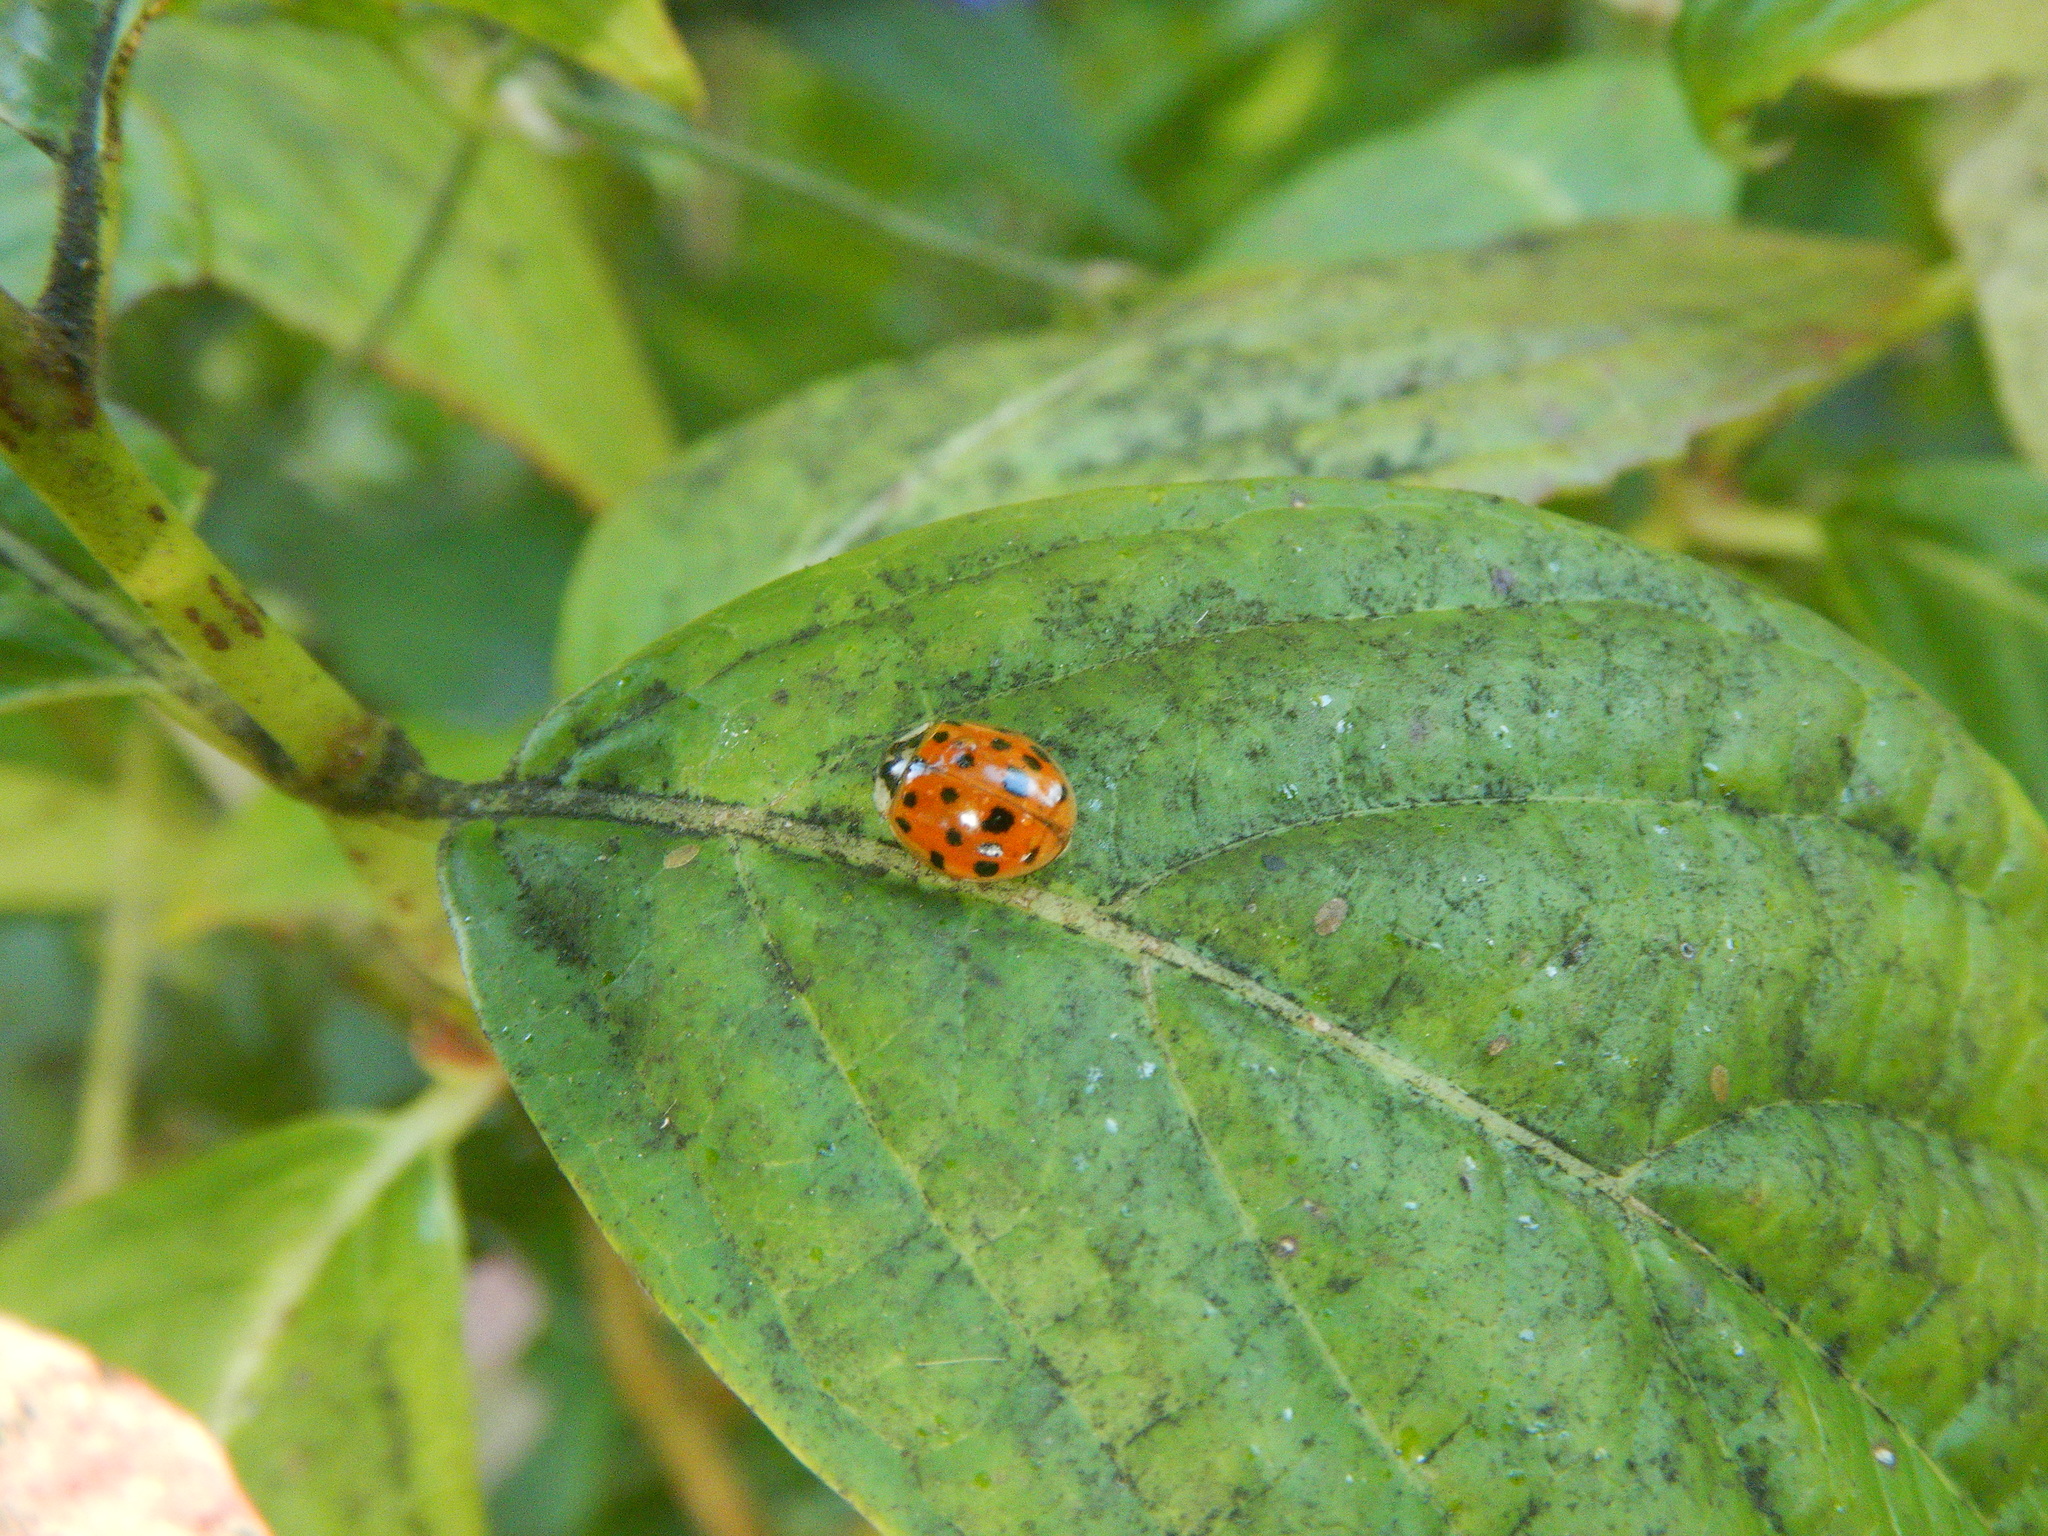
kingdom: Animalia
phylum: Arthropoda
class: Insecta
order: Coleoptera
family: Coccinellidae
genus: Harmonia
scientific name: Harmonia axyridis
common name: Harlequin ladybird
